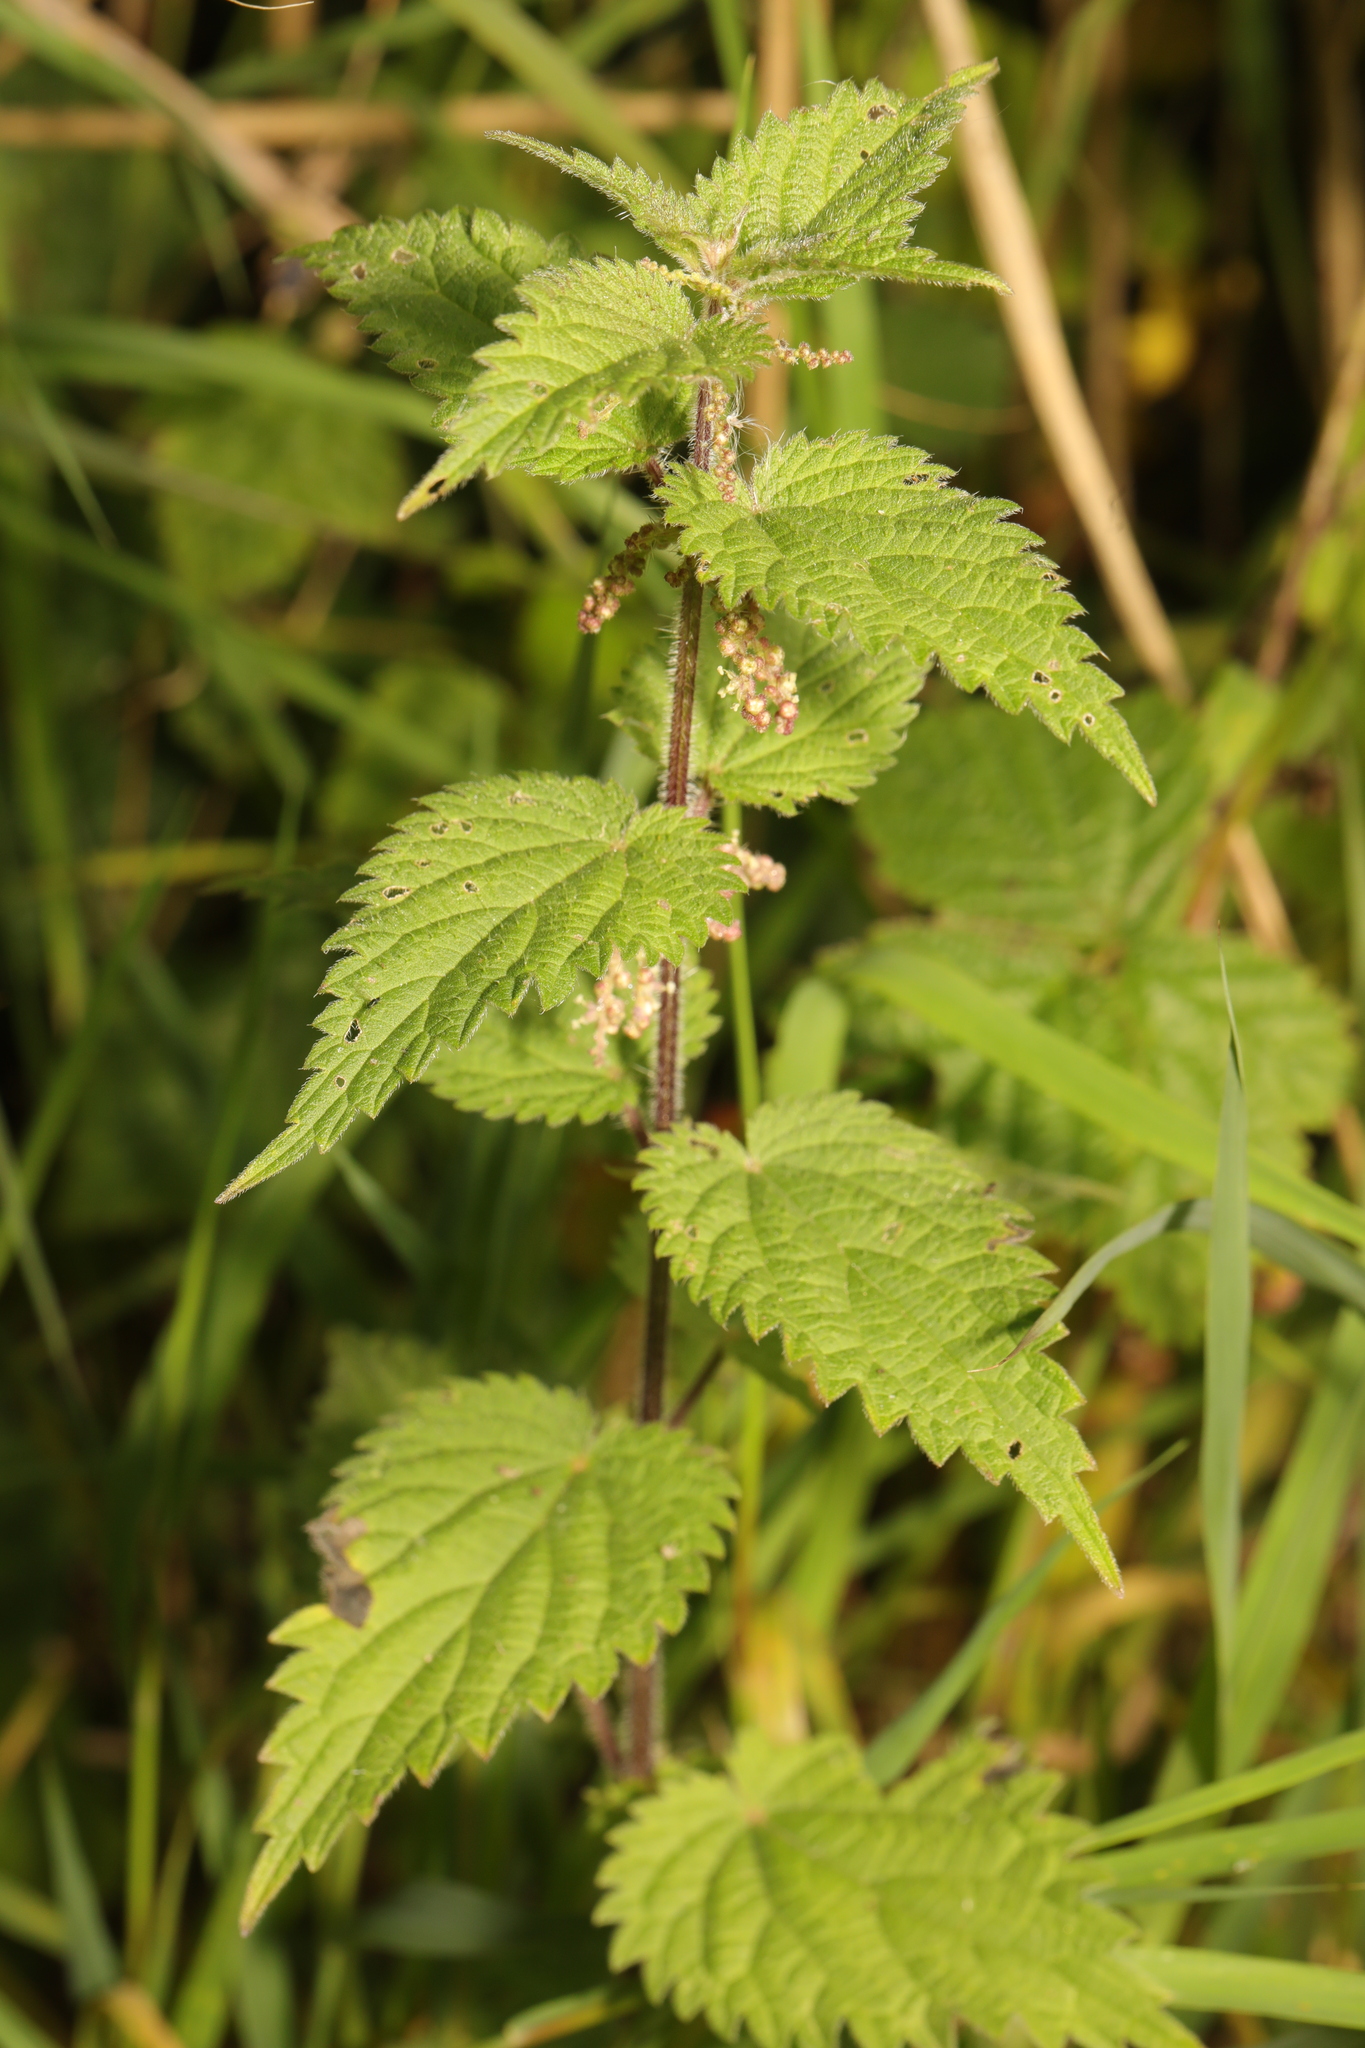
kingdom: Plantae
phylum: Tracheophyta
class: Magnoliopsida
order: Rosales
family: Urticaceae
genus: Urtica
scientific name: Urtica dioica
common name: Common nettle
